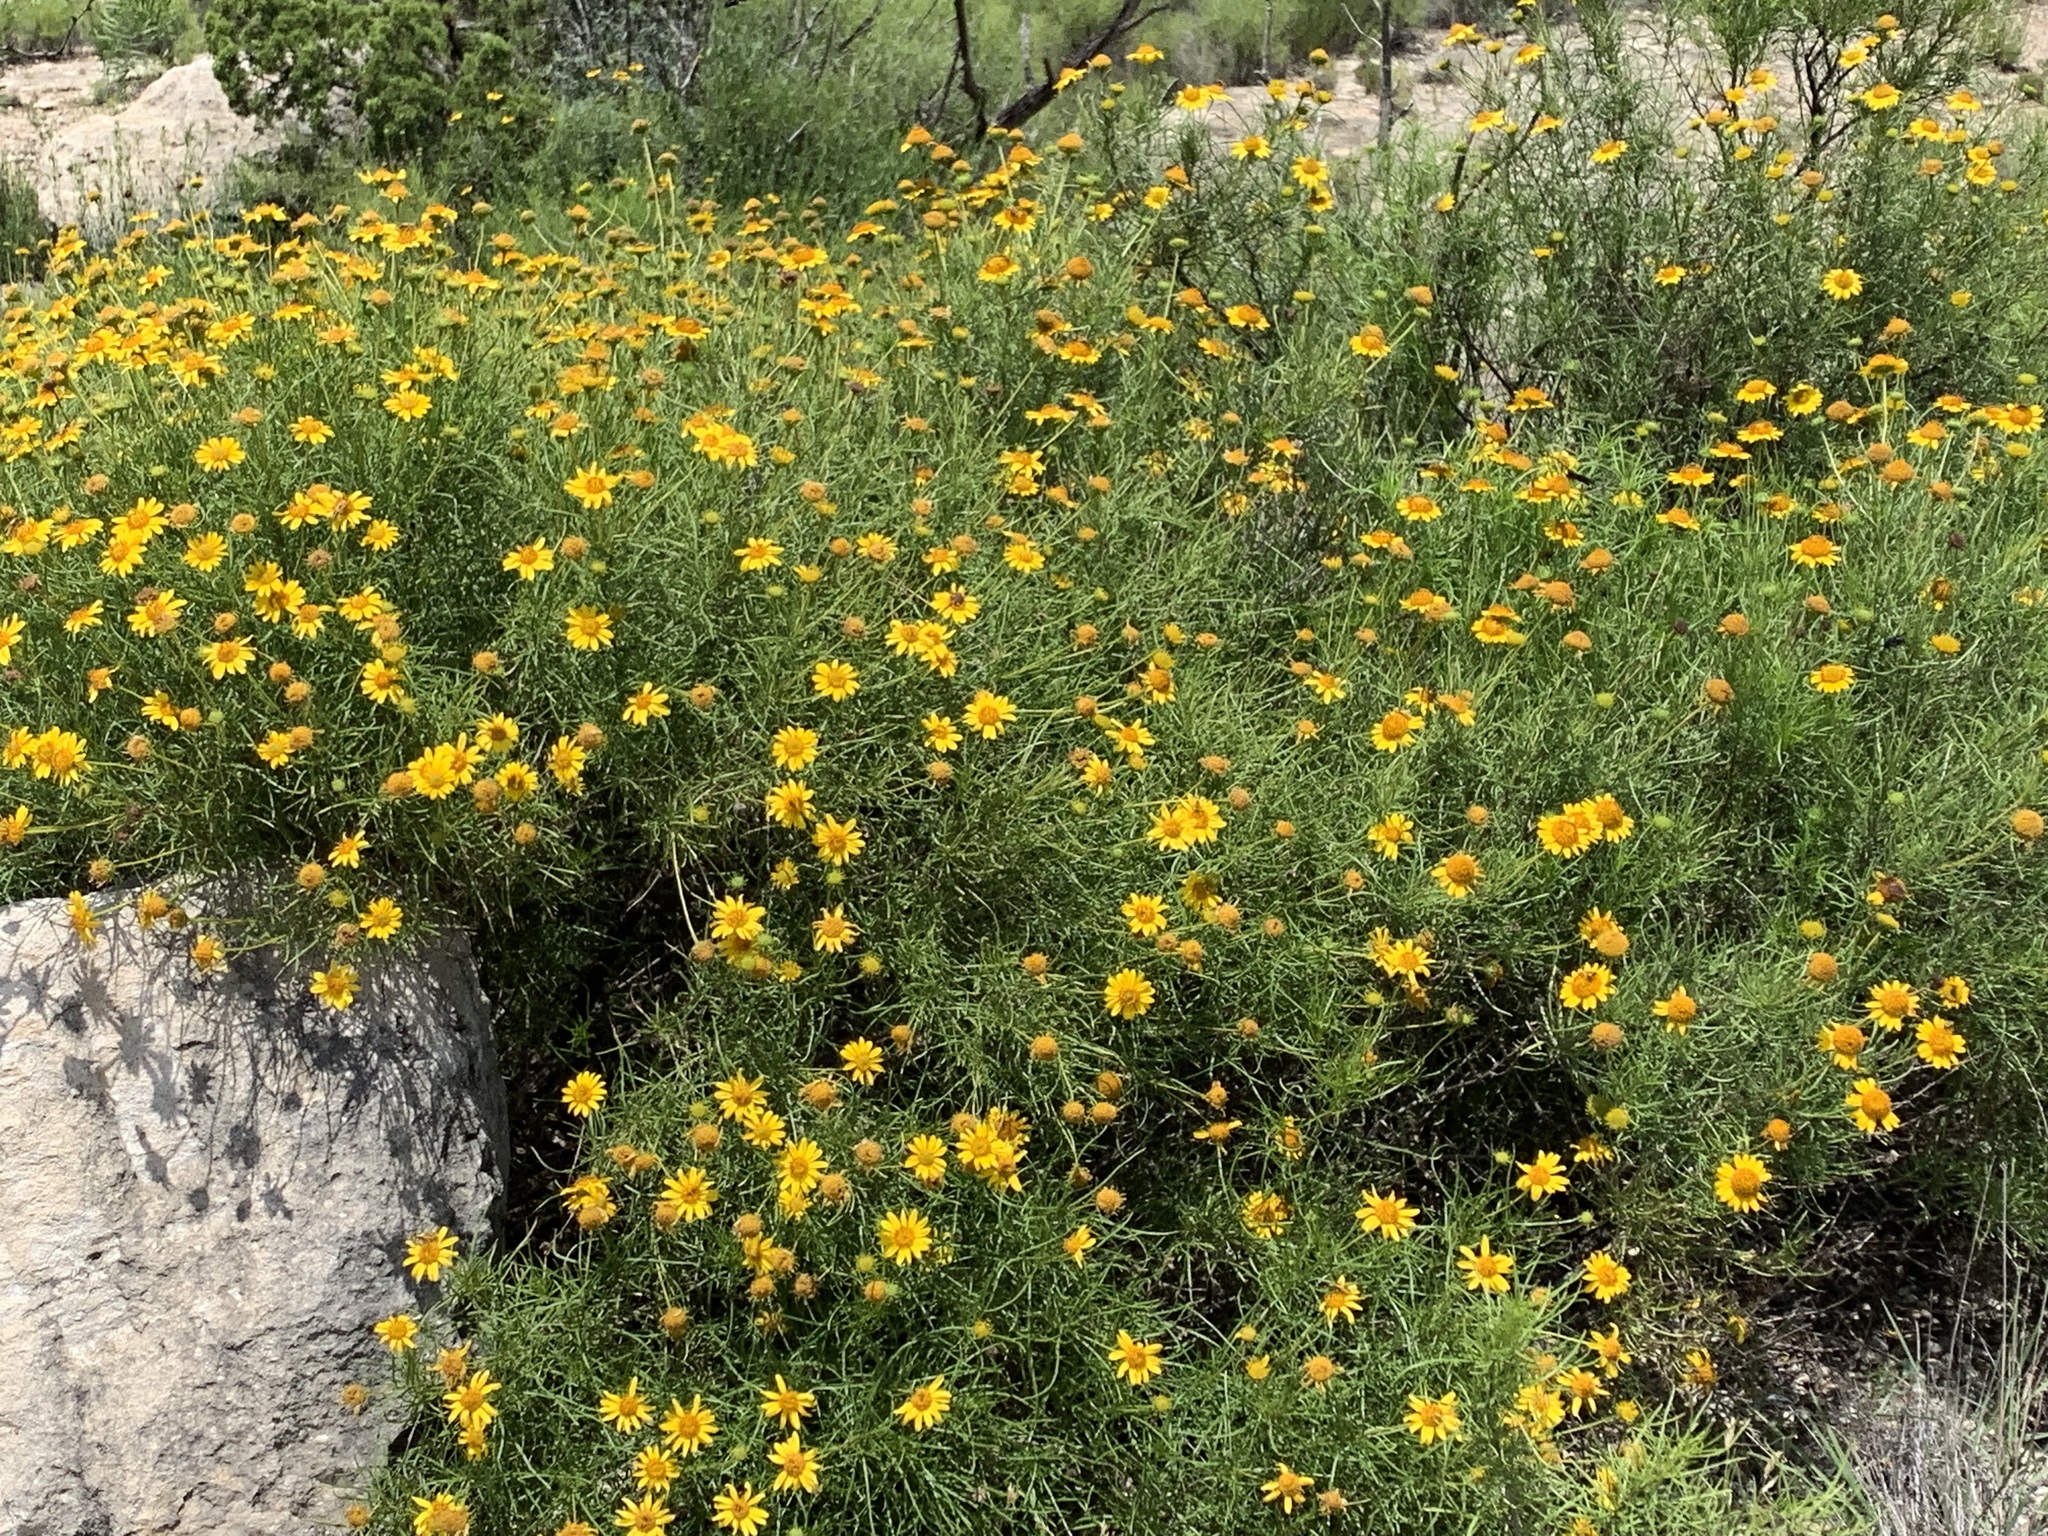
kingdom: Plantae
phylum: Tracheophyta
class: Magnoliopsida
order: Asterales
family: Asteraceae
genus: Sidneya
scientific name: Sidneya tenuifolia
